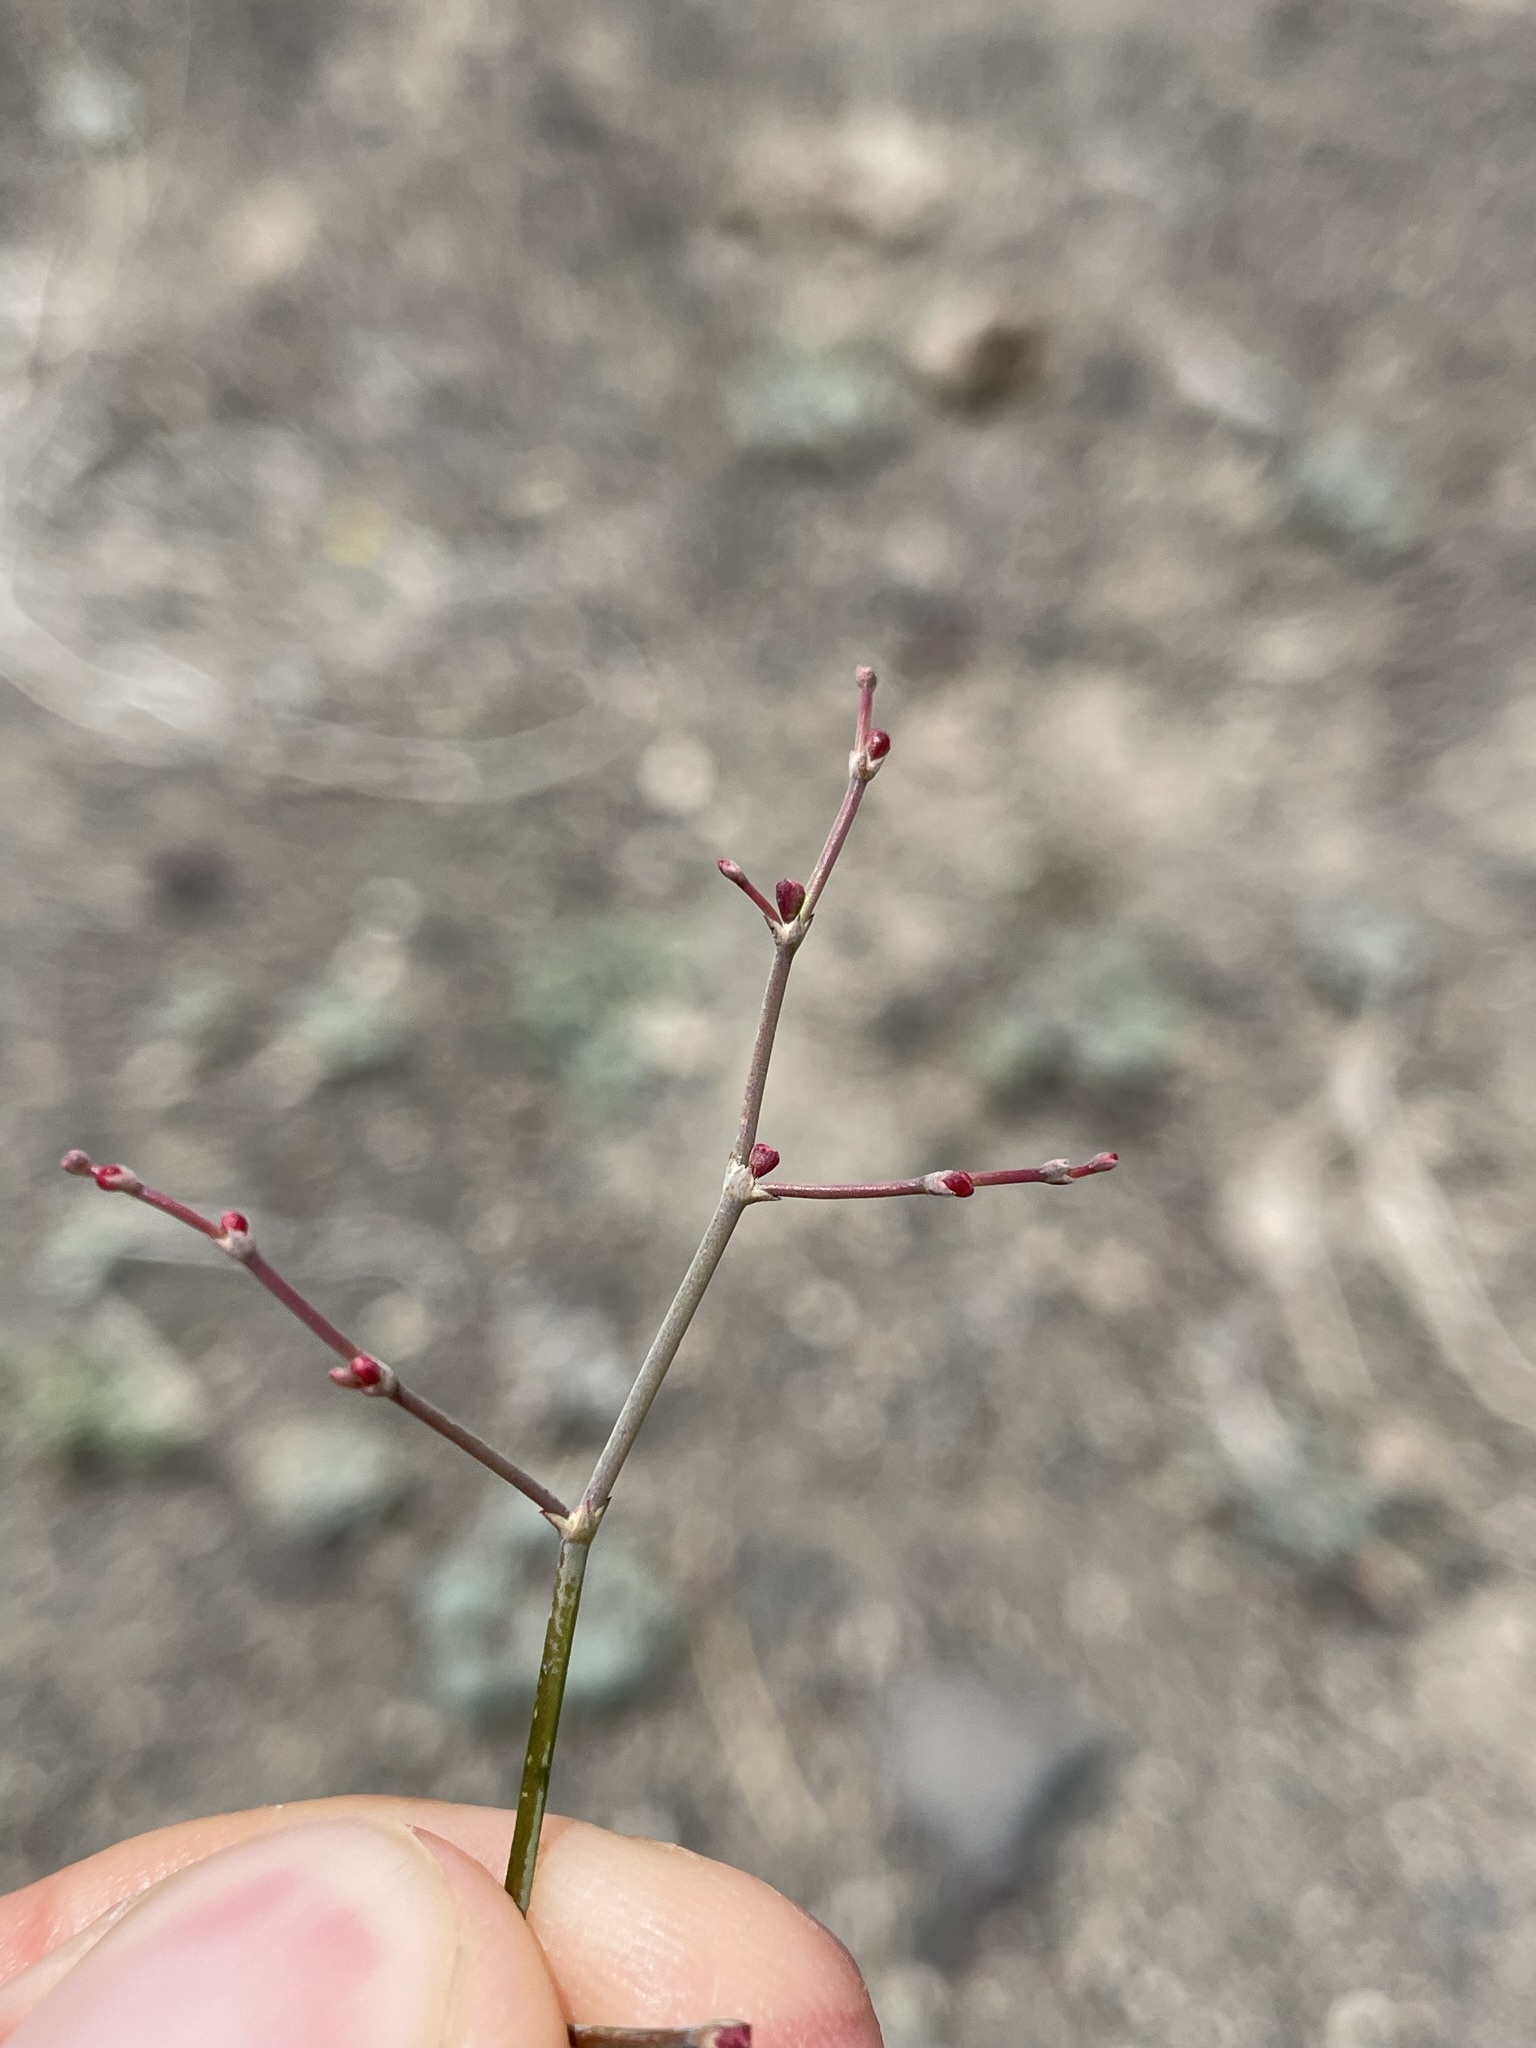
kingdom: Plantae
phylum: Tracheophyta
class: Magnoliopsida
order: Caryophyllales
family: Polygonaceae
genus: Eriogonum
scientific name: Eriogonum deflexum
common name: Skeleton-weed
